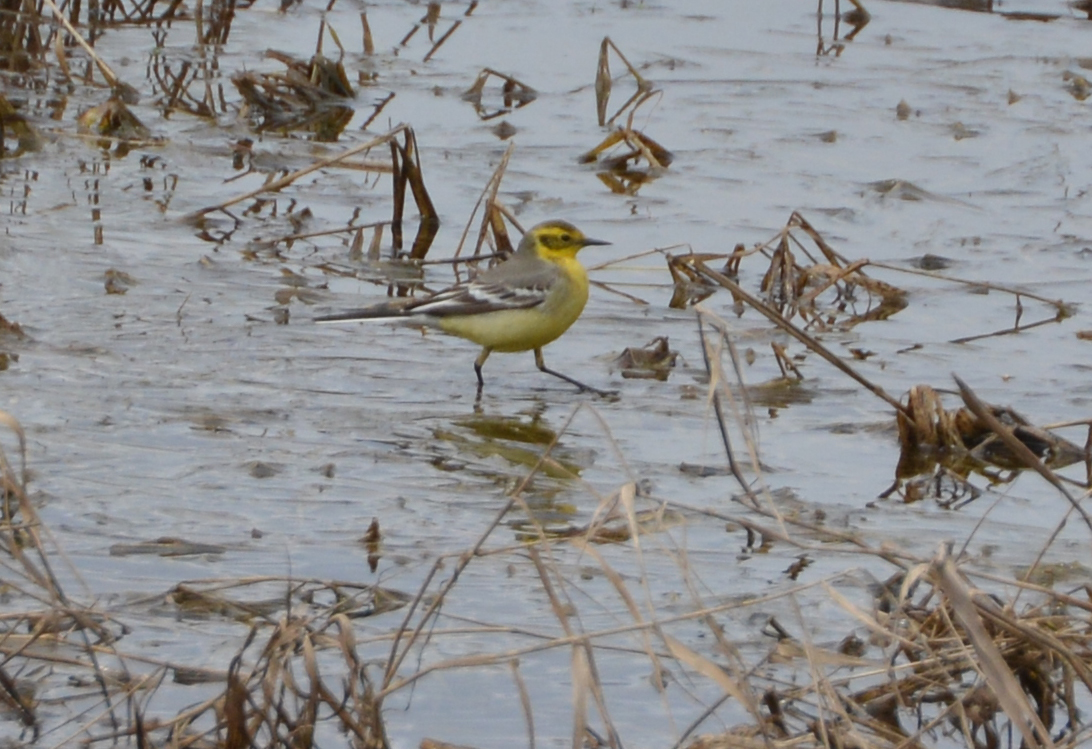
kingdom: Animalia
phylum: Chordata
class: Aves
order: Passeriformes
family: Motacillidae
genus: Motacilla
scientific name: Motacilla citreola
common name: Citrine wagtail
